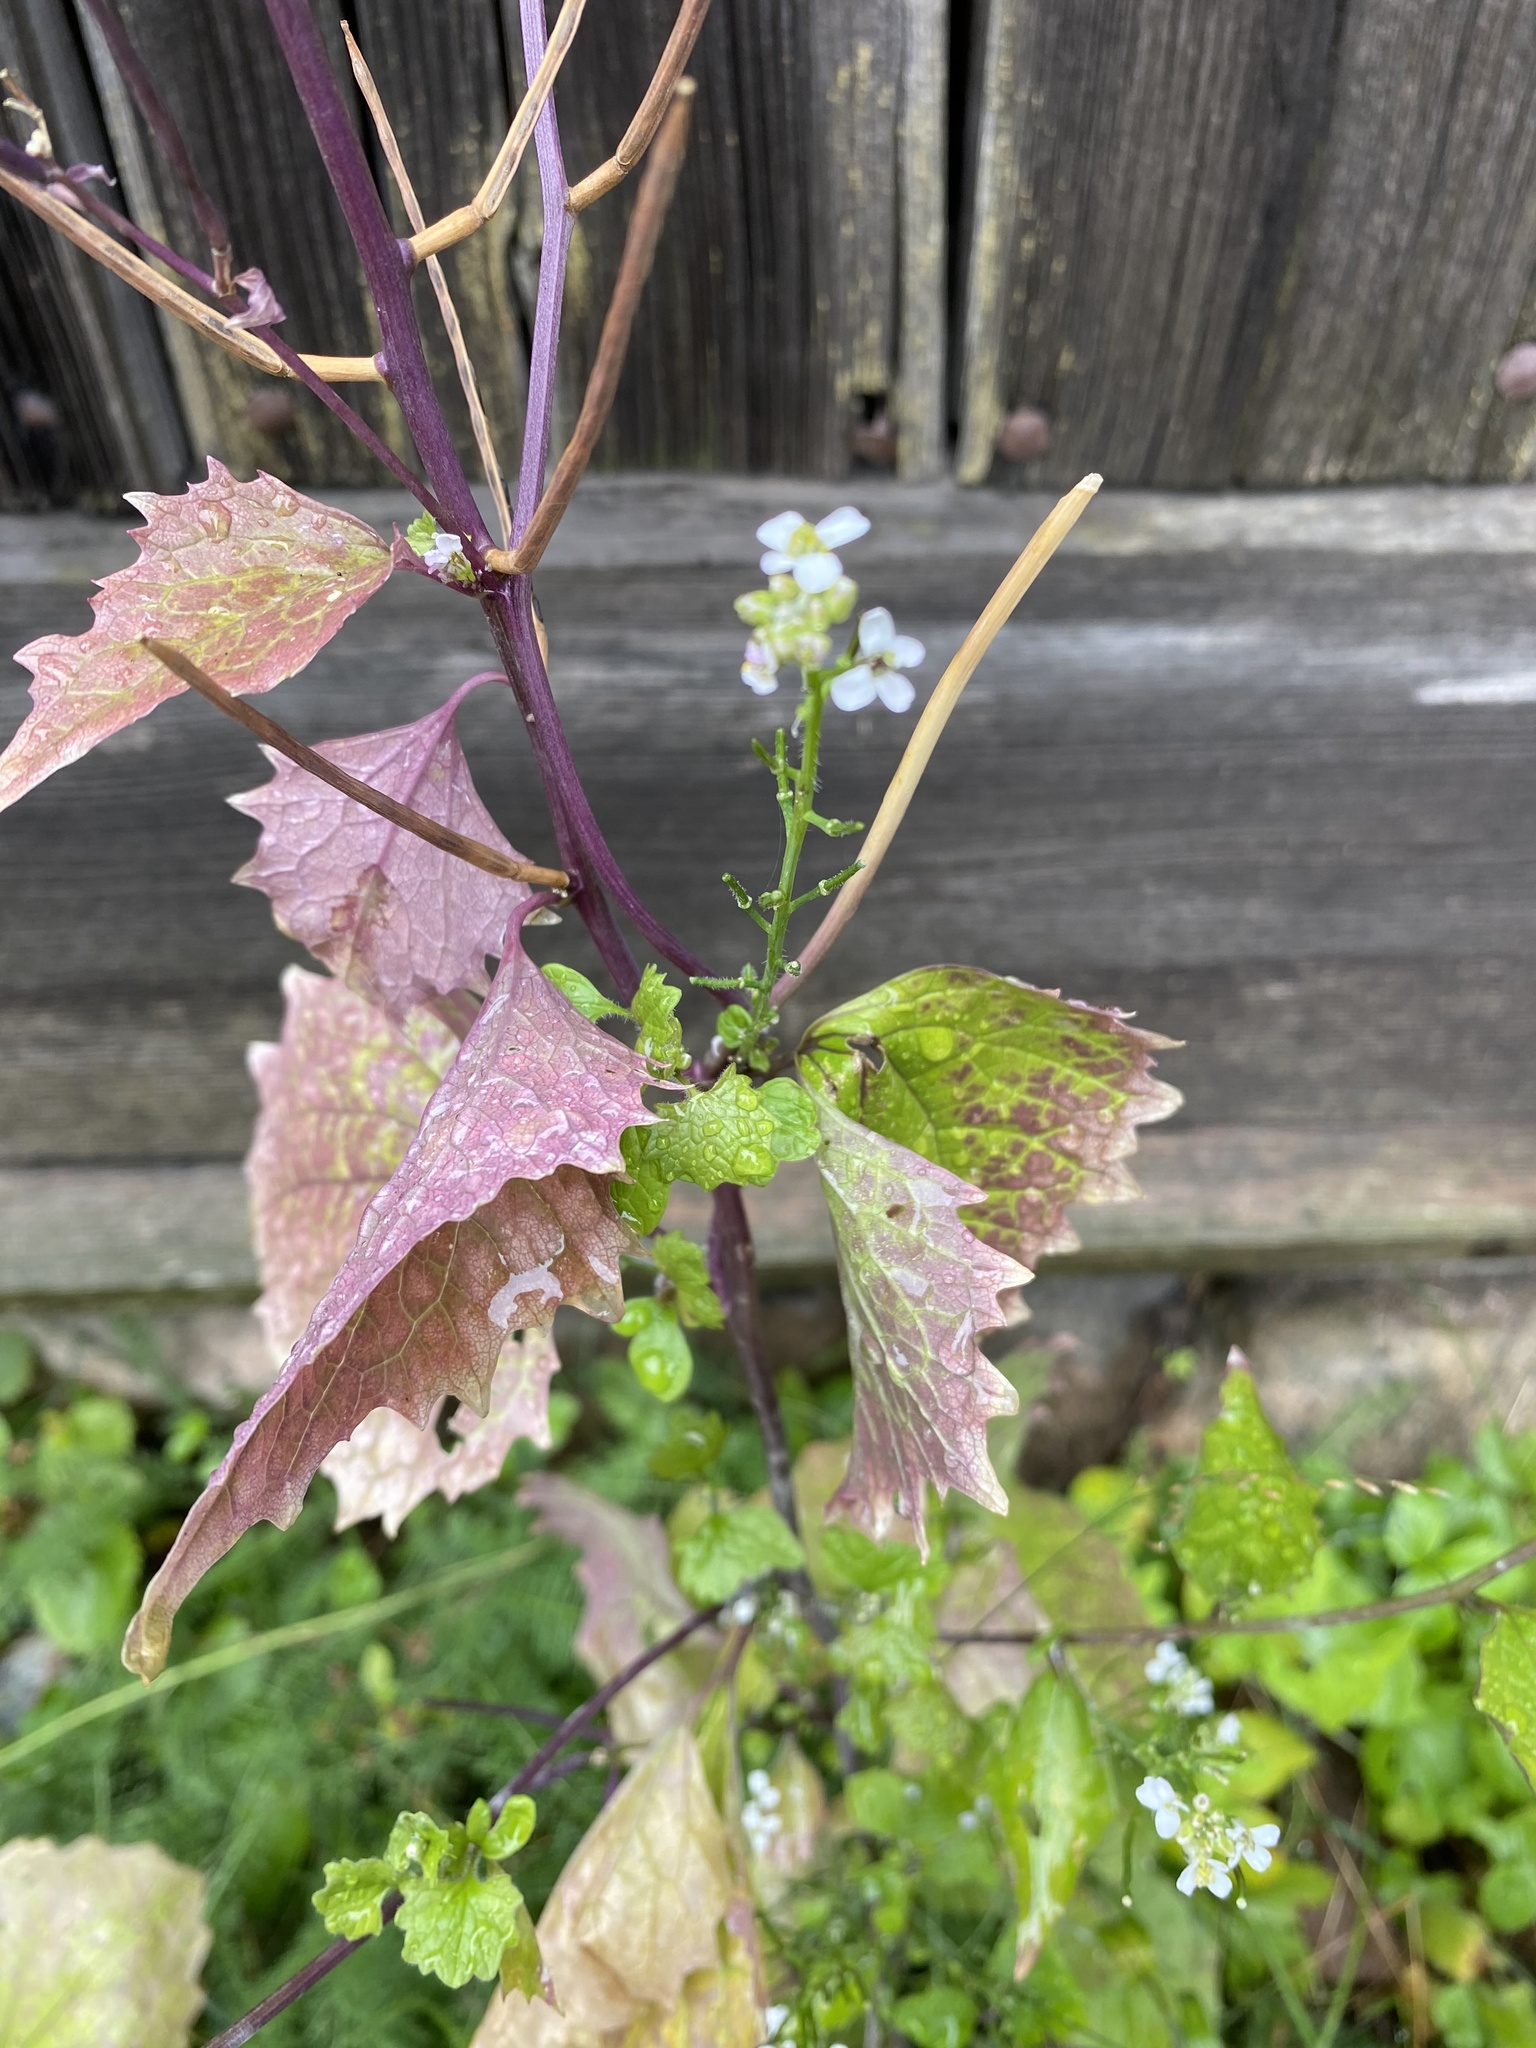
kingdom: Plantae
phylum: Tracheophyta
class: Magnoliopsida
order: Brassicales
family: Brassicaceae
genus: Alliaria
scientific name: Alliaria petiolata
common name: Garlic mustard
